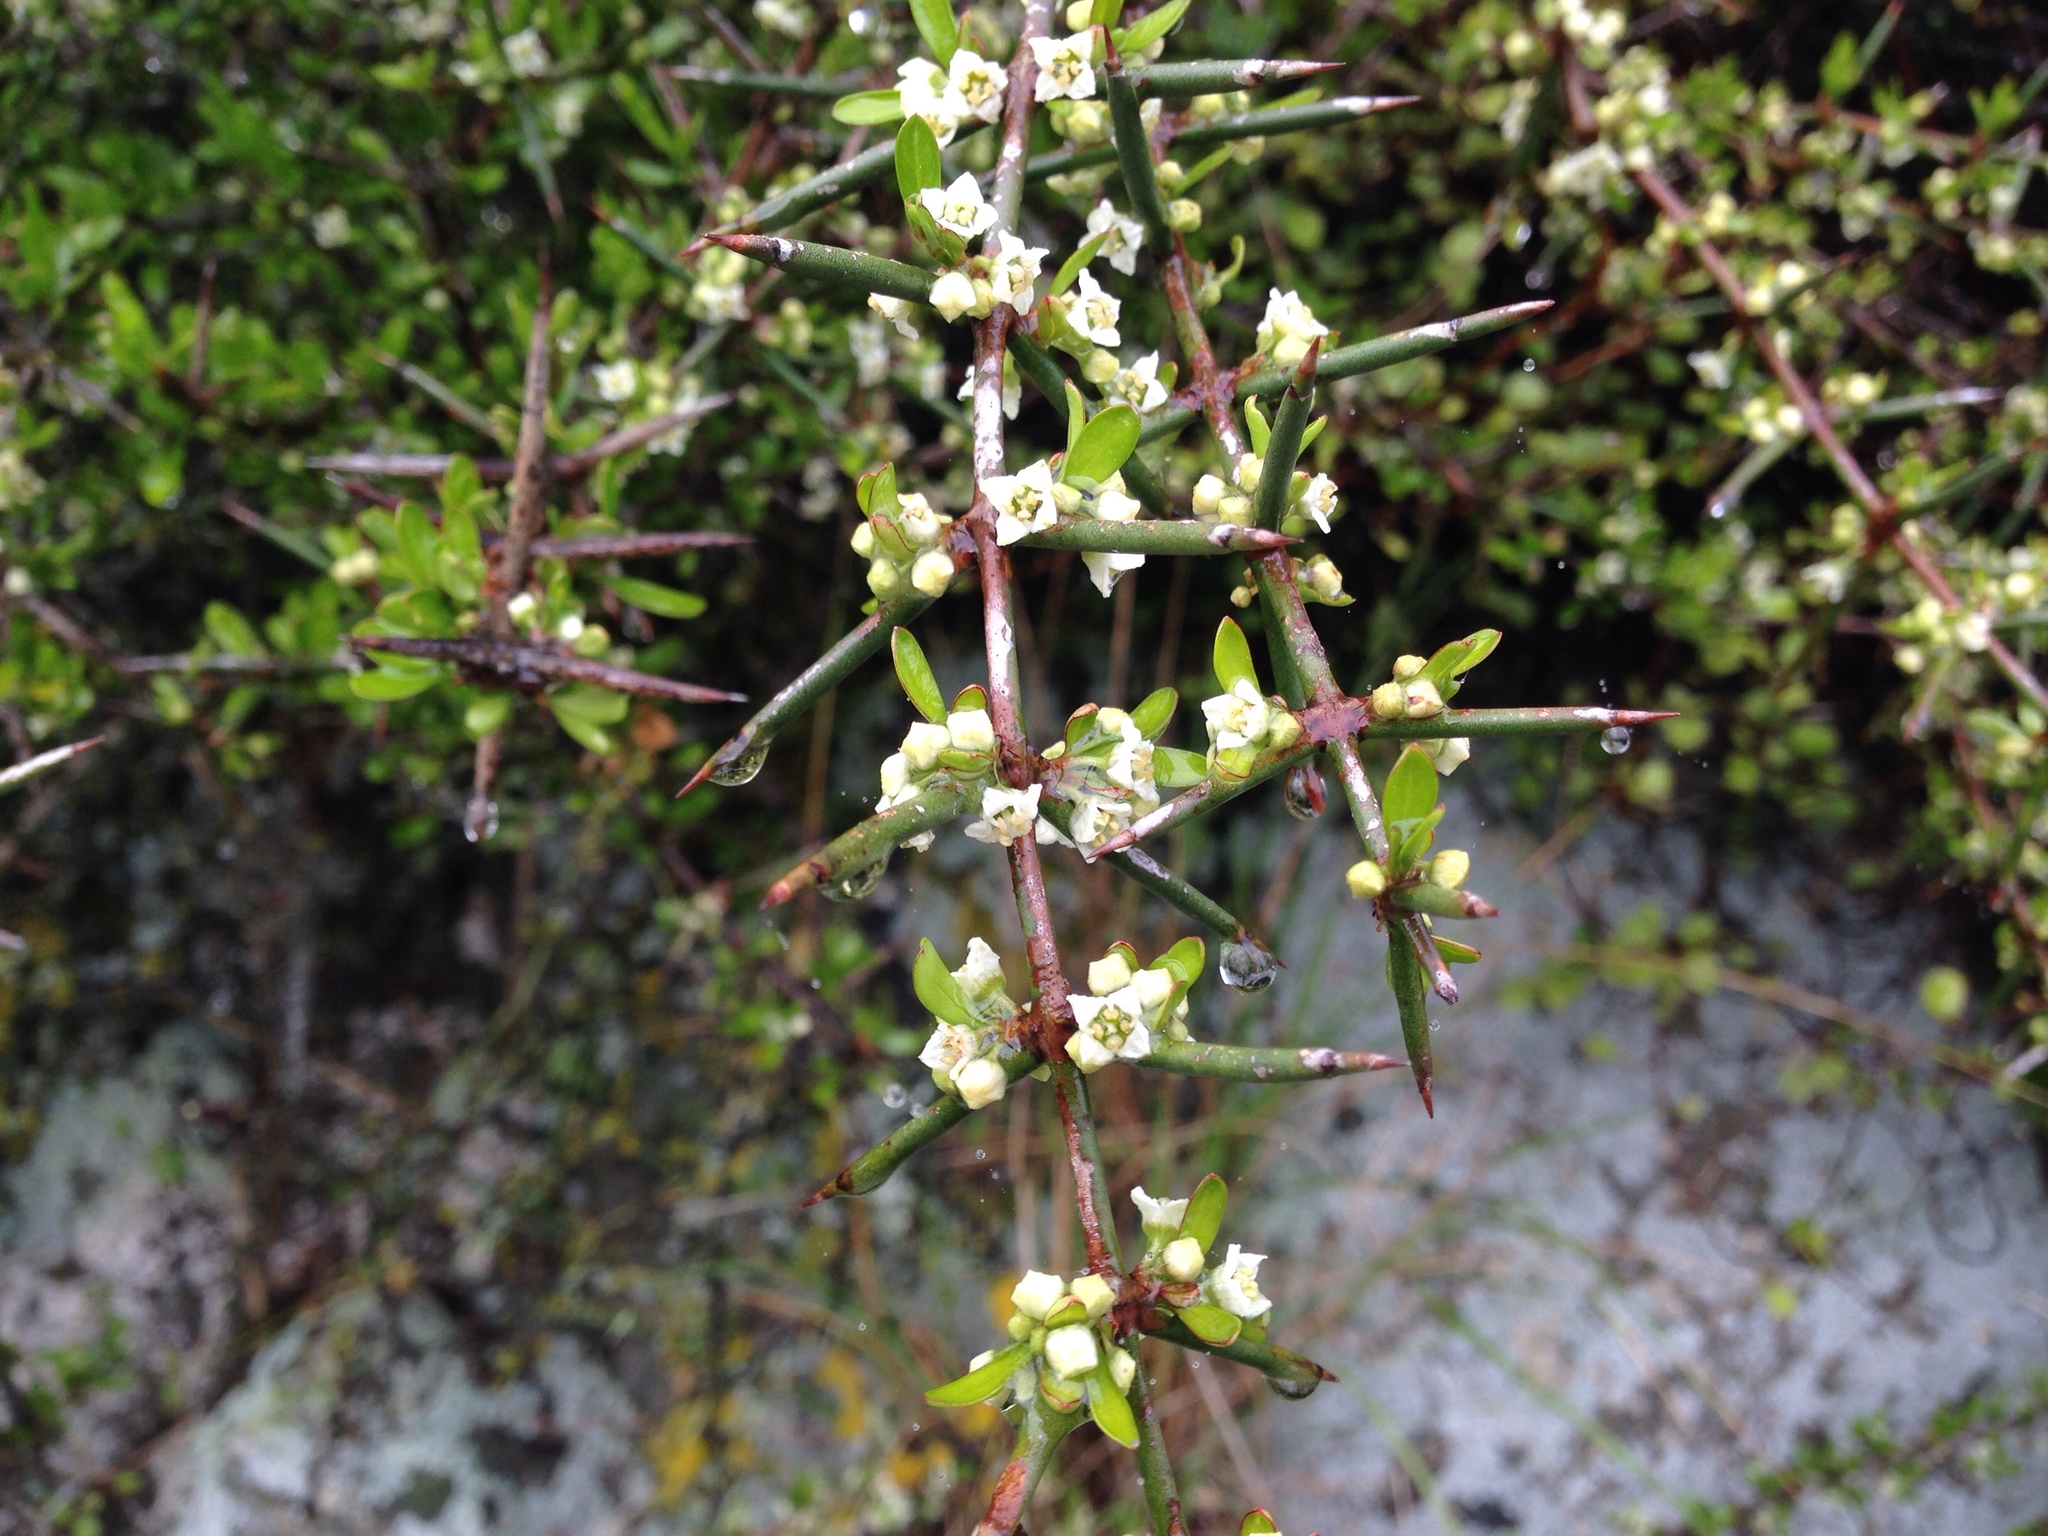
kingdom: Plantae
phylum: Tracheophyta
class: Magnoliopsida
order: Rosales
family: Rhamnaceae
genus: Discaria
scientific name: Discaria toumatou
